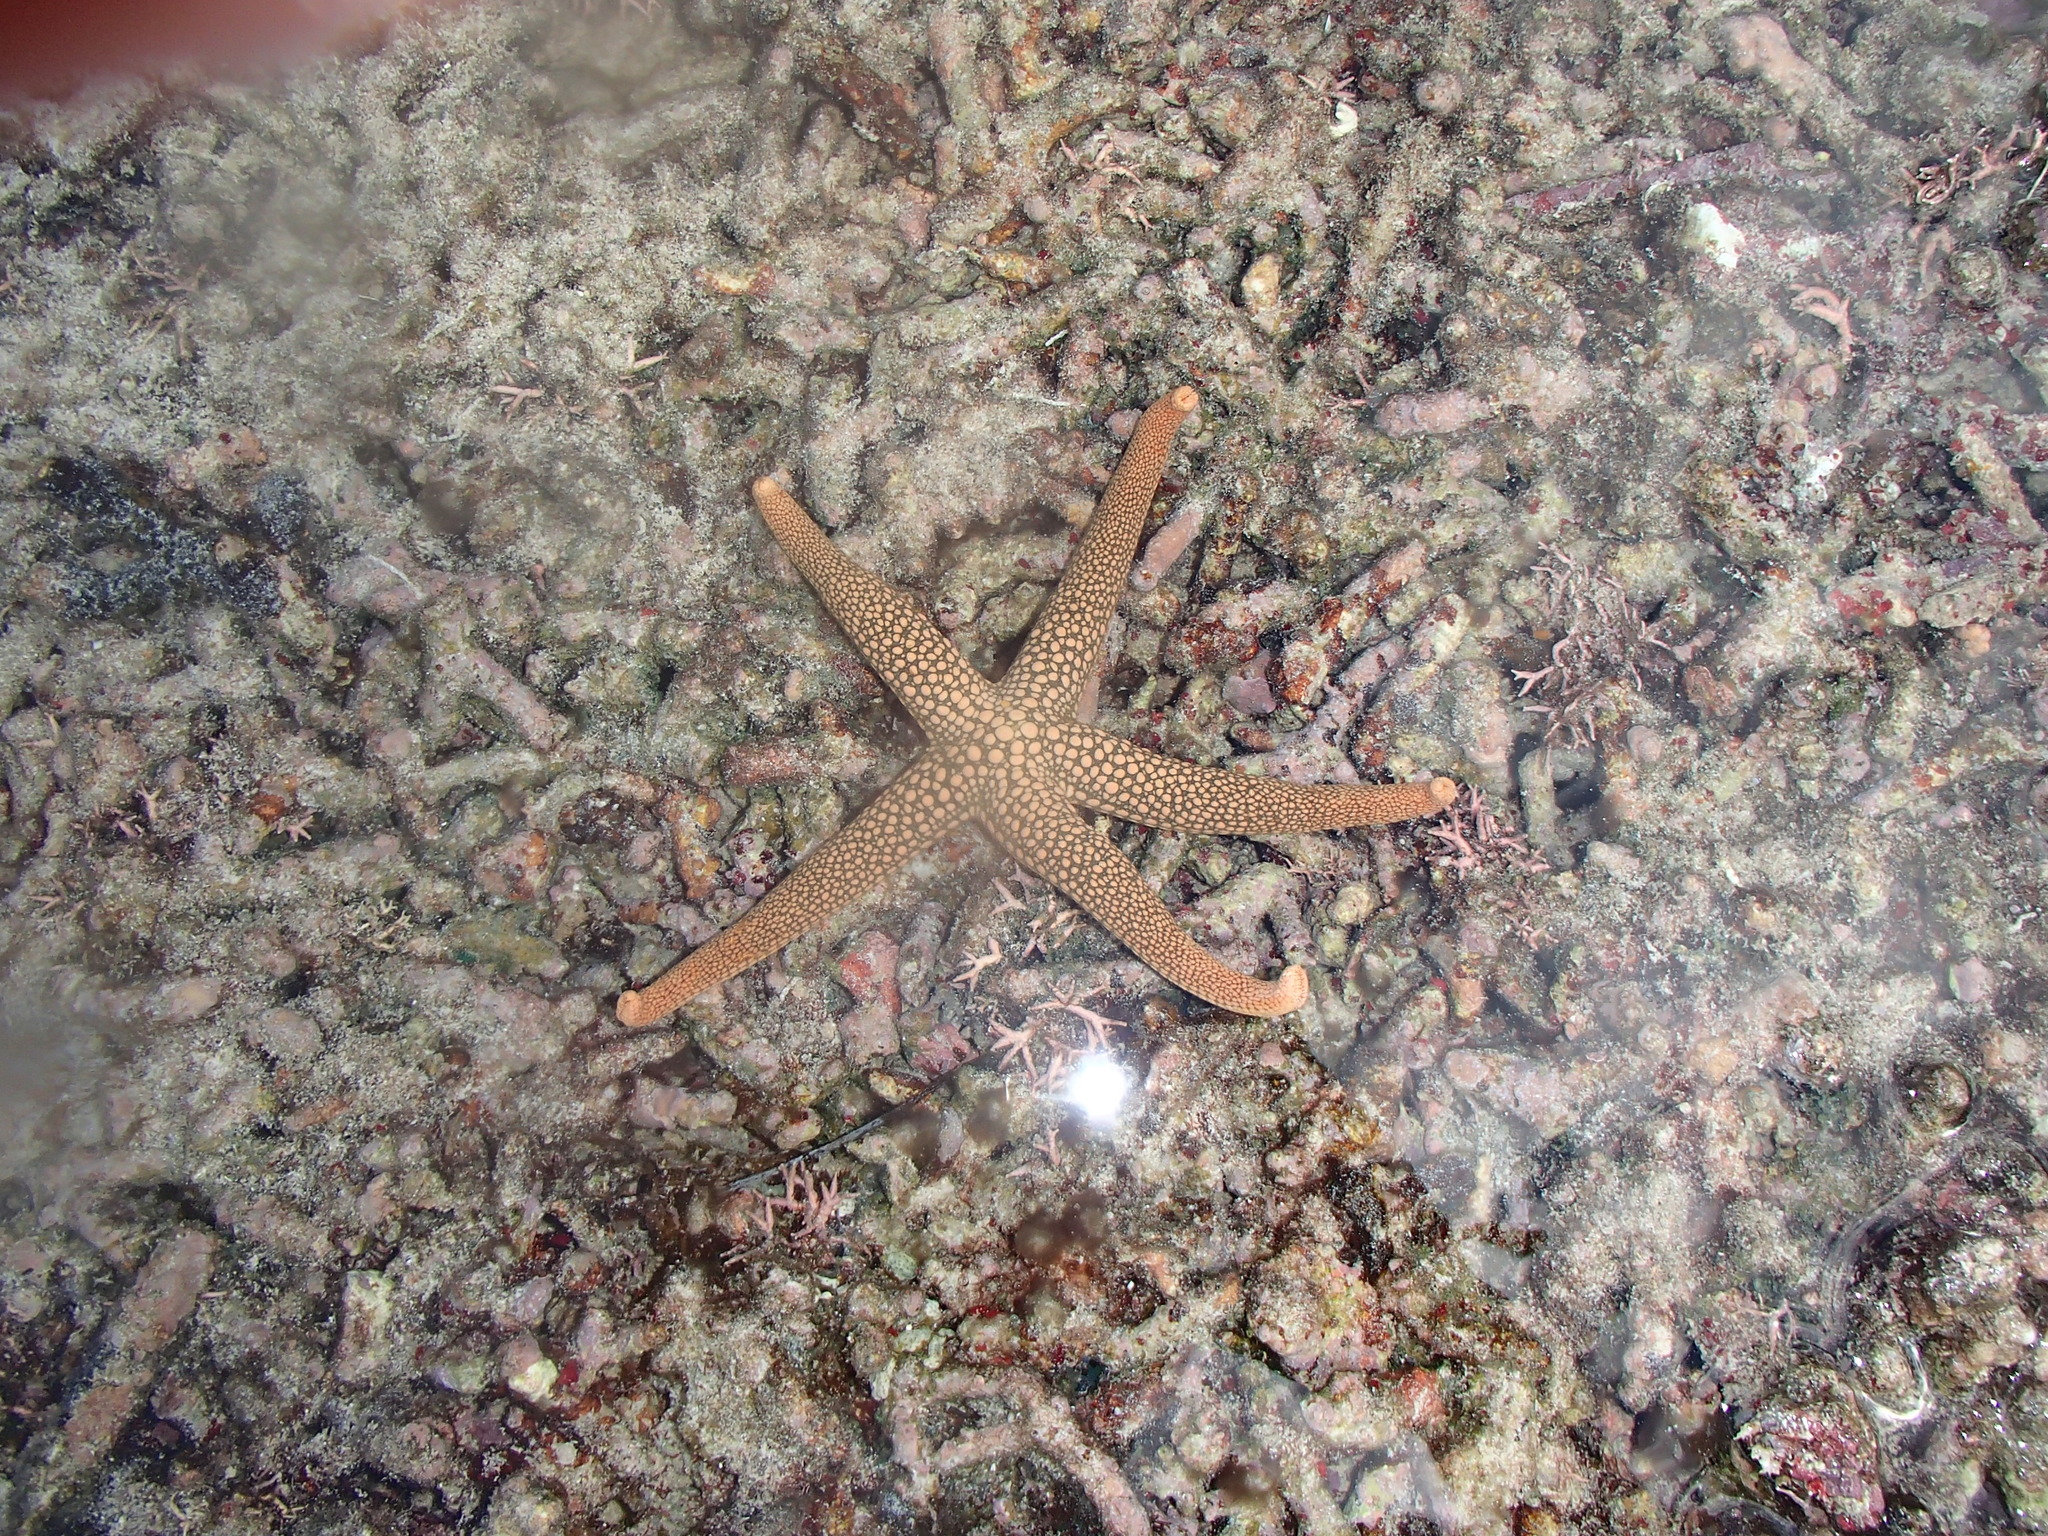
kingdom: Animalia
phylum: Echinodermata
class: Asteroidea
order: Valvatida
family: Ophidiasteridae
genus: Nardoa
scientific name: Nardoa novaecaledoniae
